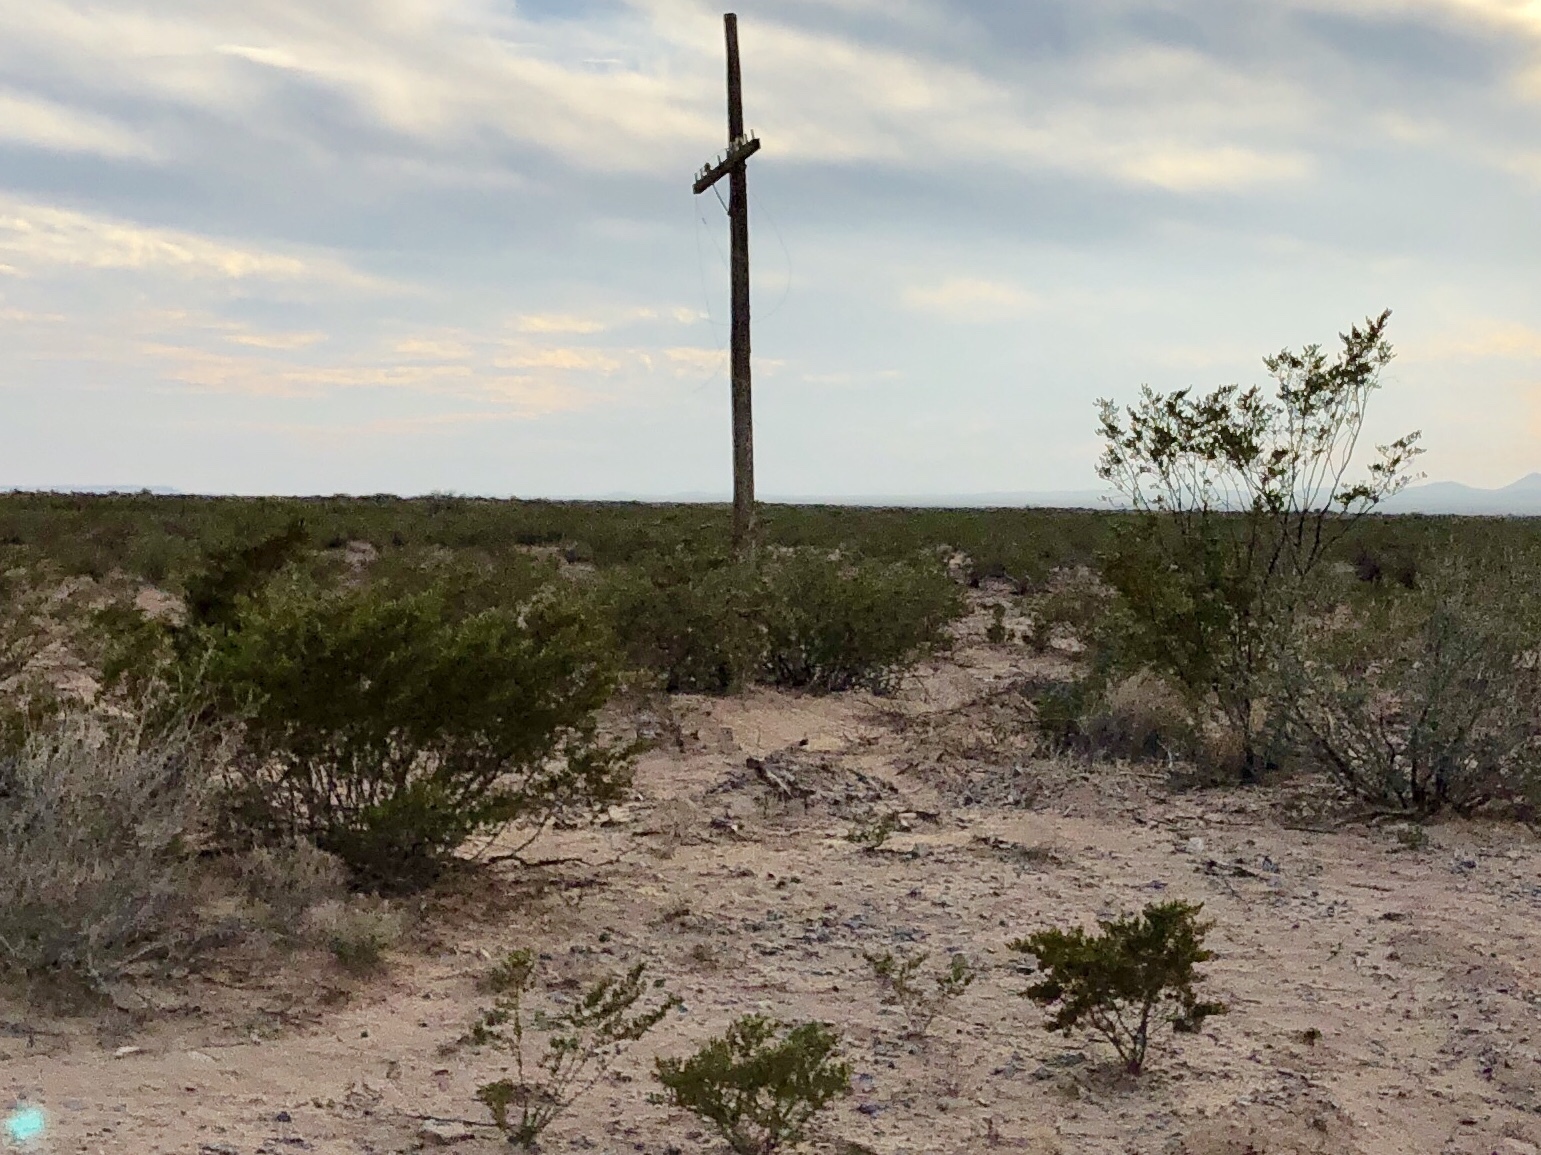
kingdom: Plantae
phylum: Tracheophyta
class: Magnoliopsida
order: Zygophyllales
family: Zygophyllaceae
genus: Larrea
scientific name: Larrea tridentata
